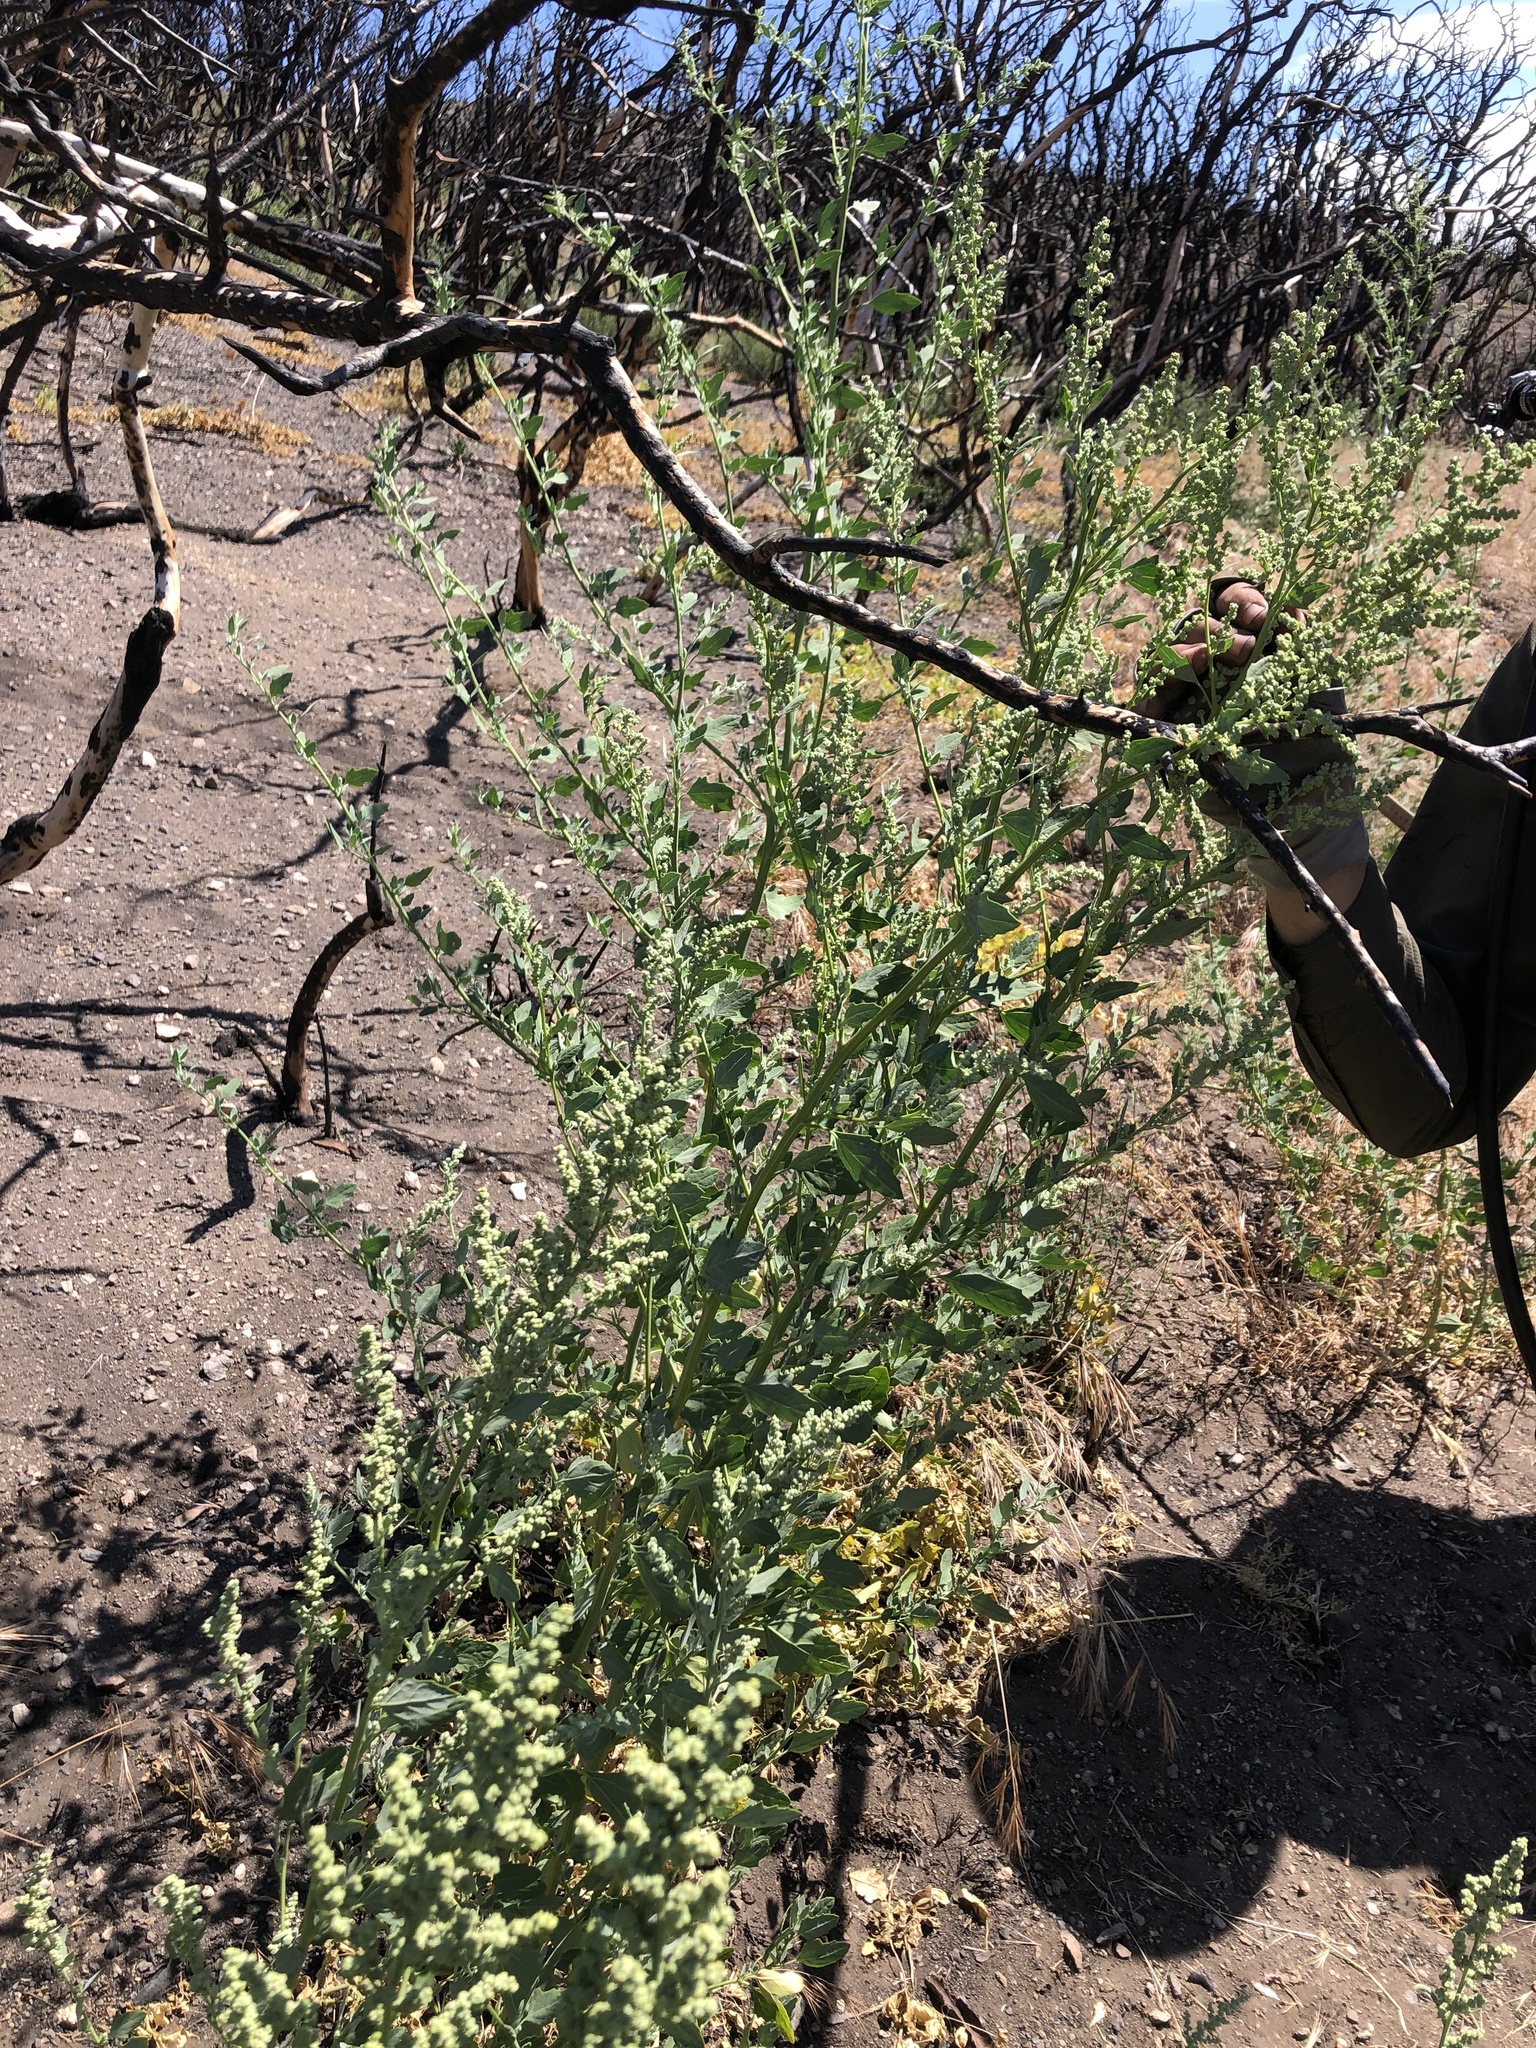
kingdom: Plantae
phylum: Tracheophyta
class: Magnoliopsida
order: Caryophyllales
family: Amaranthaceae
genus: Chenopodium
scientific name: Chenopodium album
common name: Fat-hen
